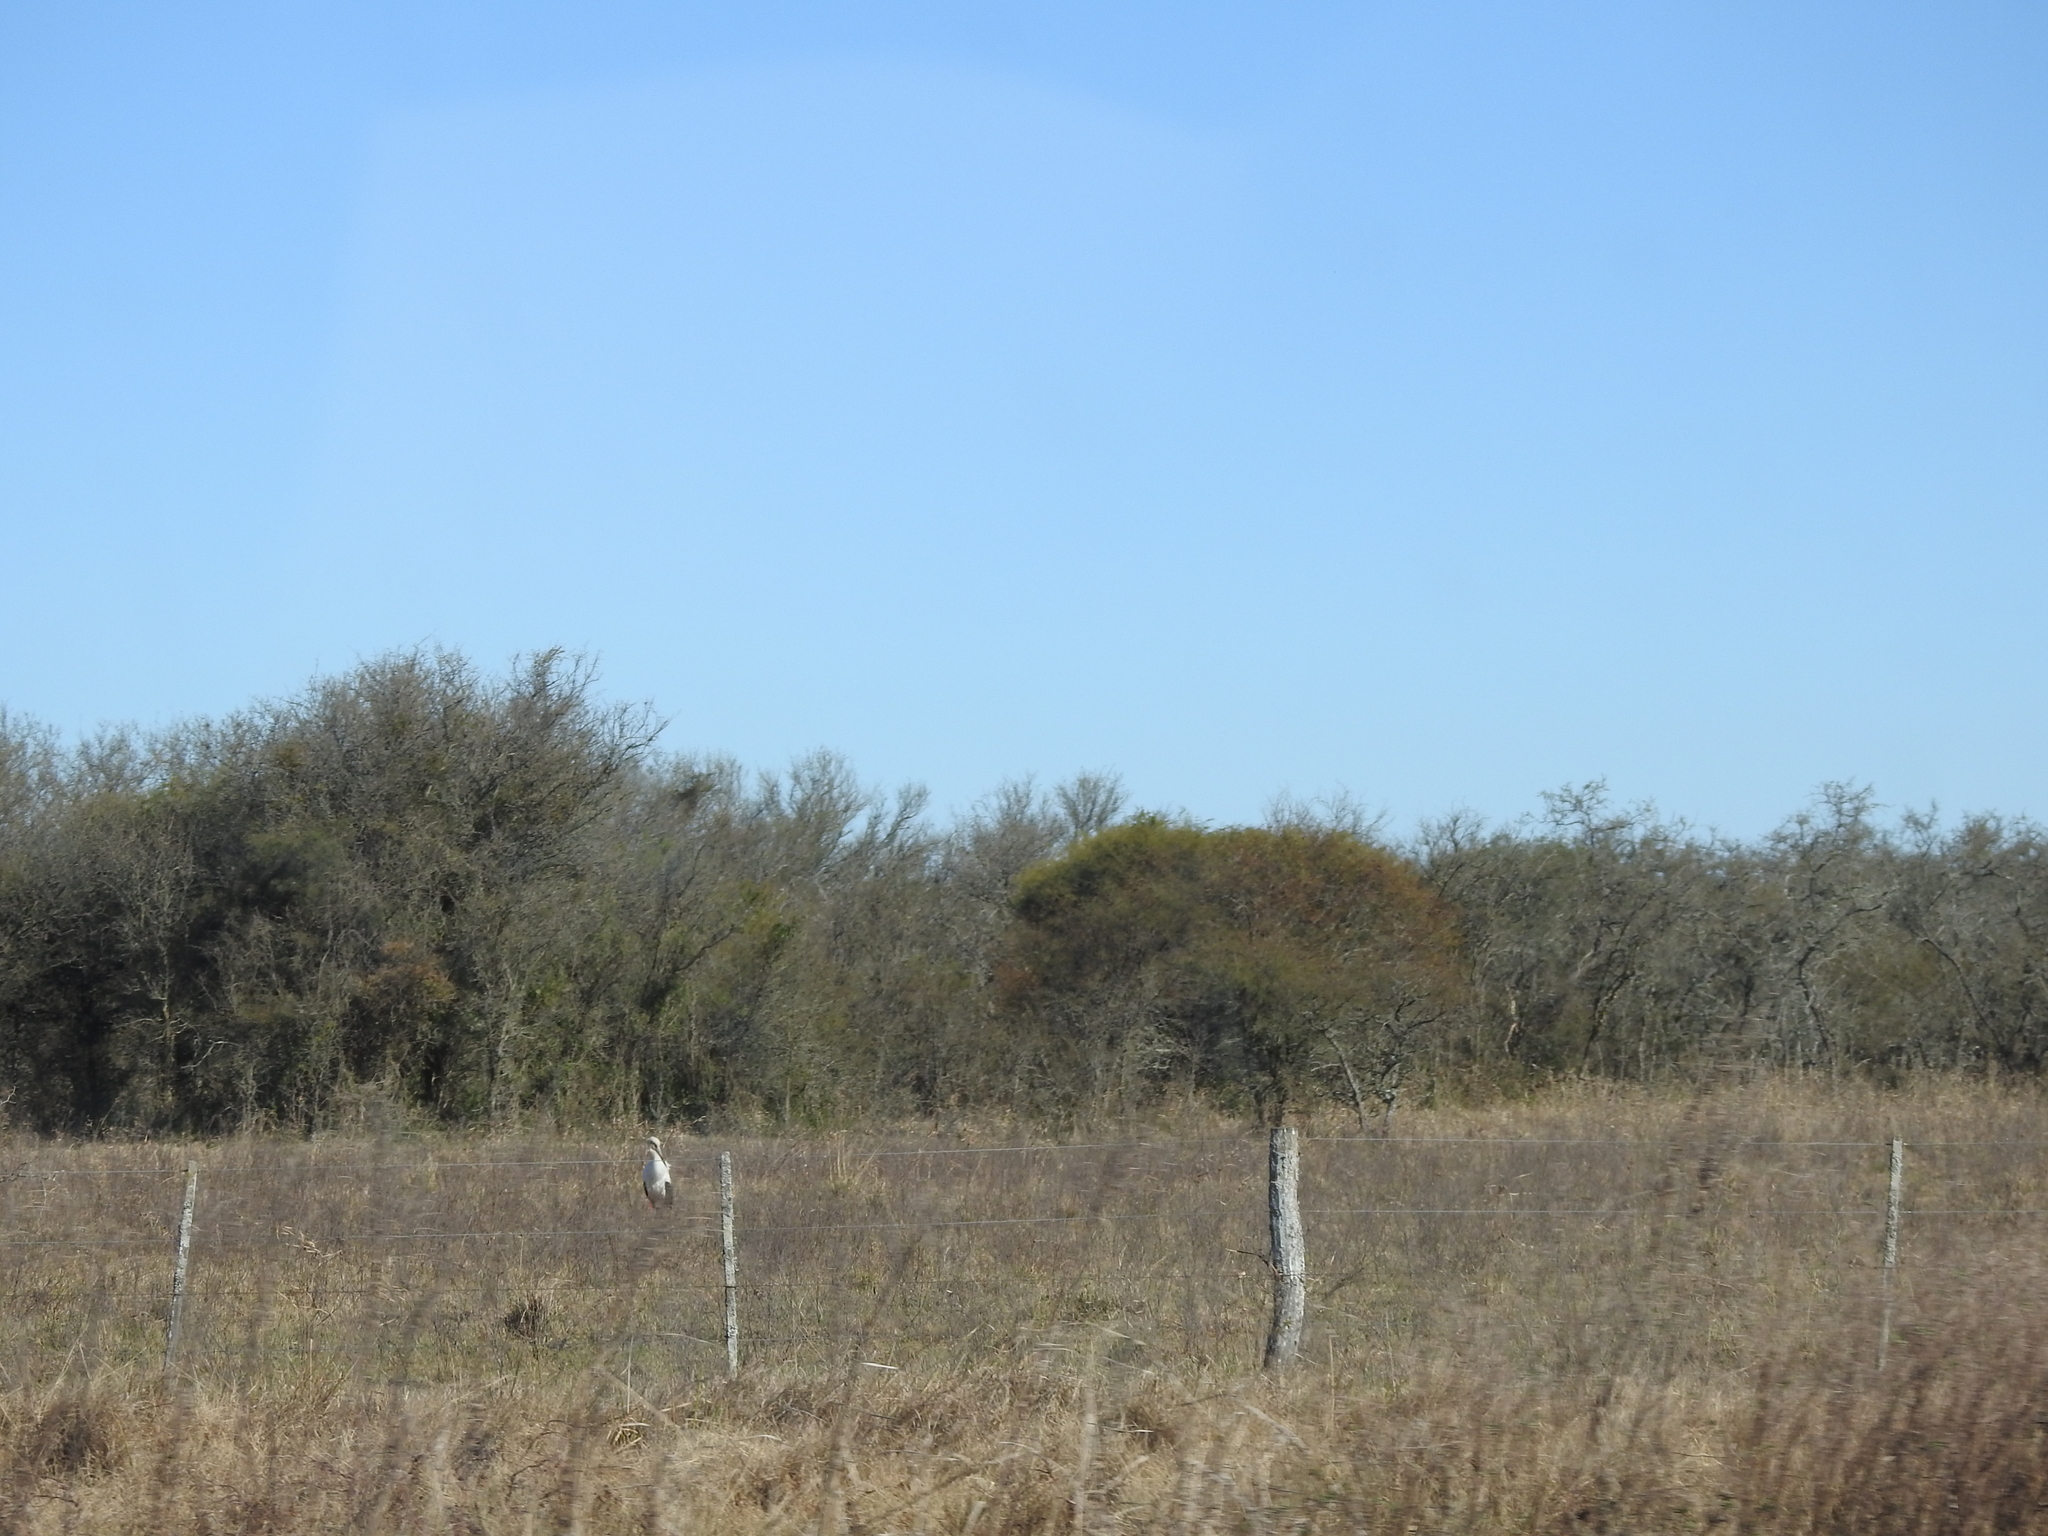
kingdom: Animalia
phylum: Chordata
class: Aves
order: Ciconiiformes
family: Ciconiidae
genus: Ciconia
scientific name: Ciconia maguari
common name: Maguari stork
